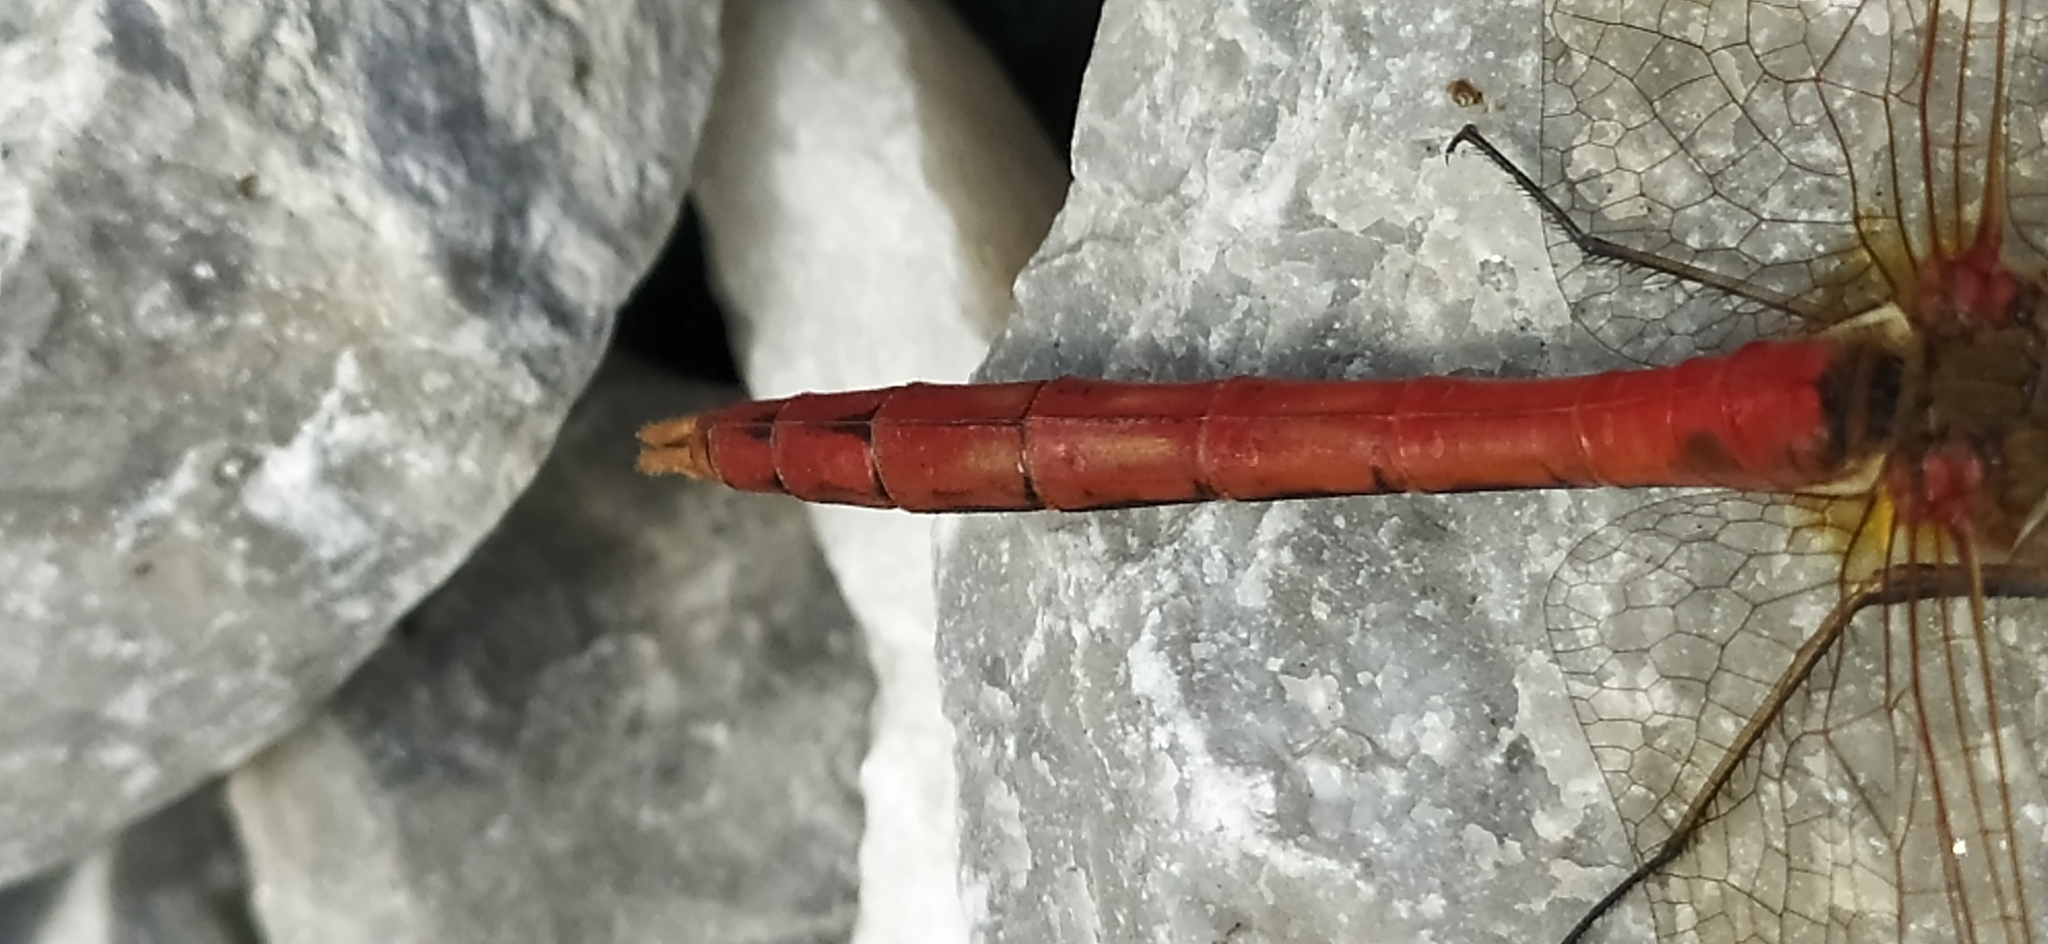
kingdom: Animalia
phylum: Arthropoda
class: Insecta
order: Odonata
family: Libellulidae
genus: Sympetrum
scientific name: Sympetrum vulgatum
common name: Vagrant darter
